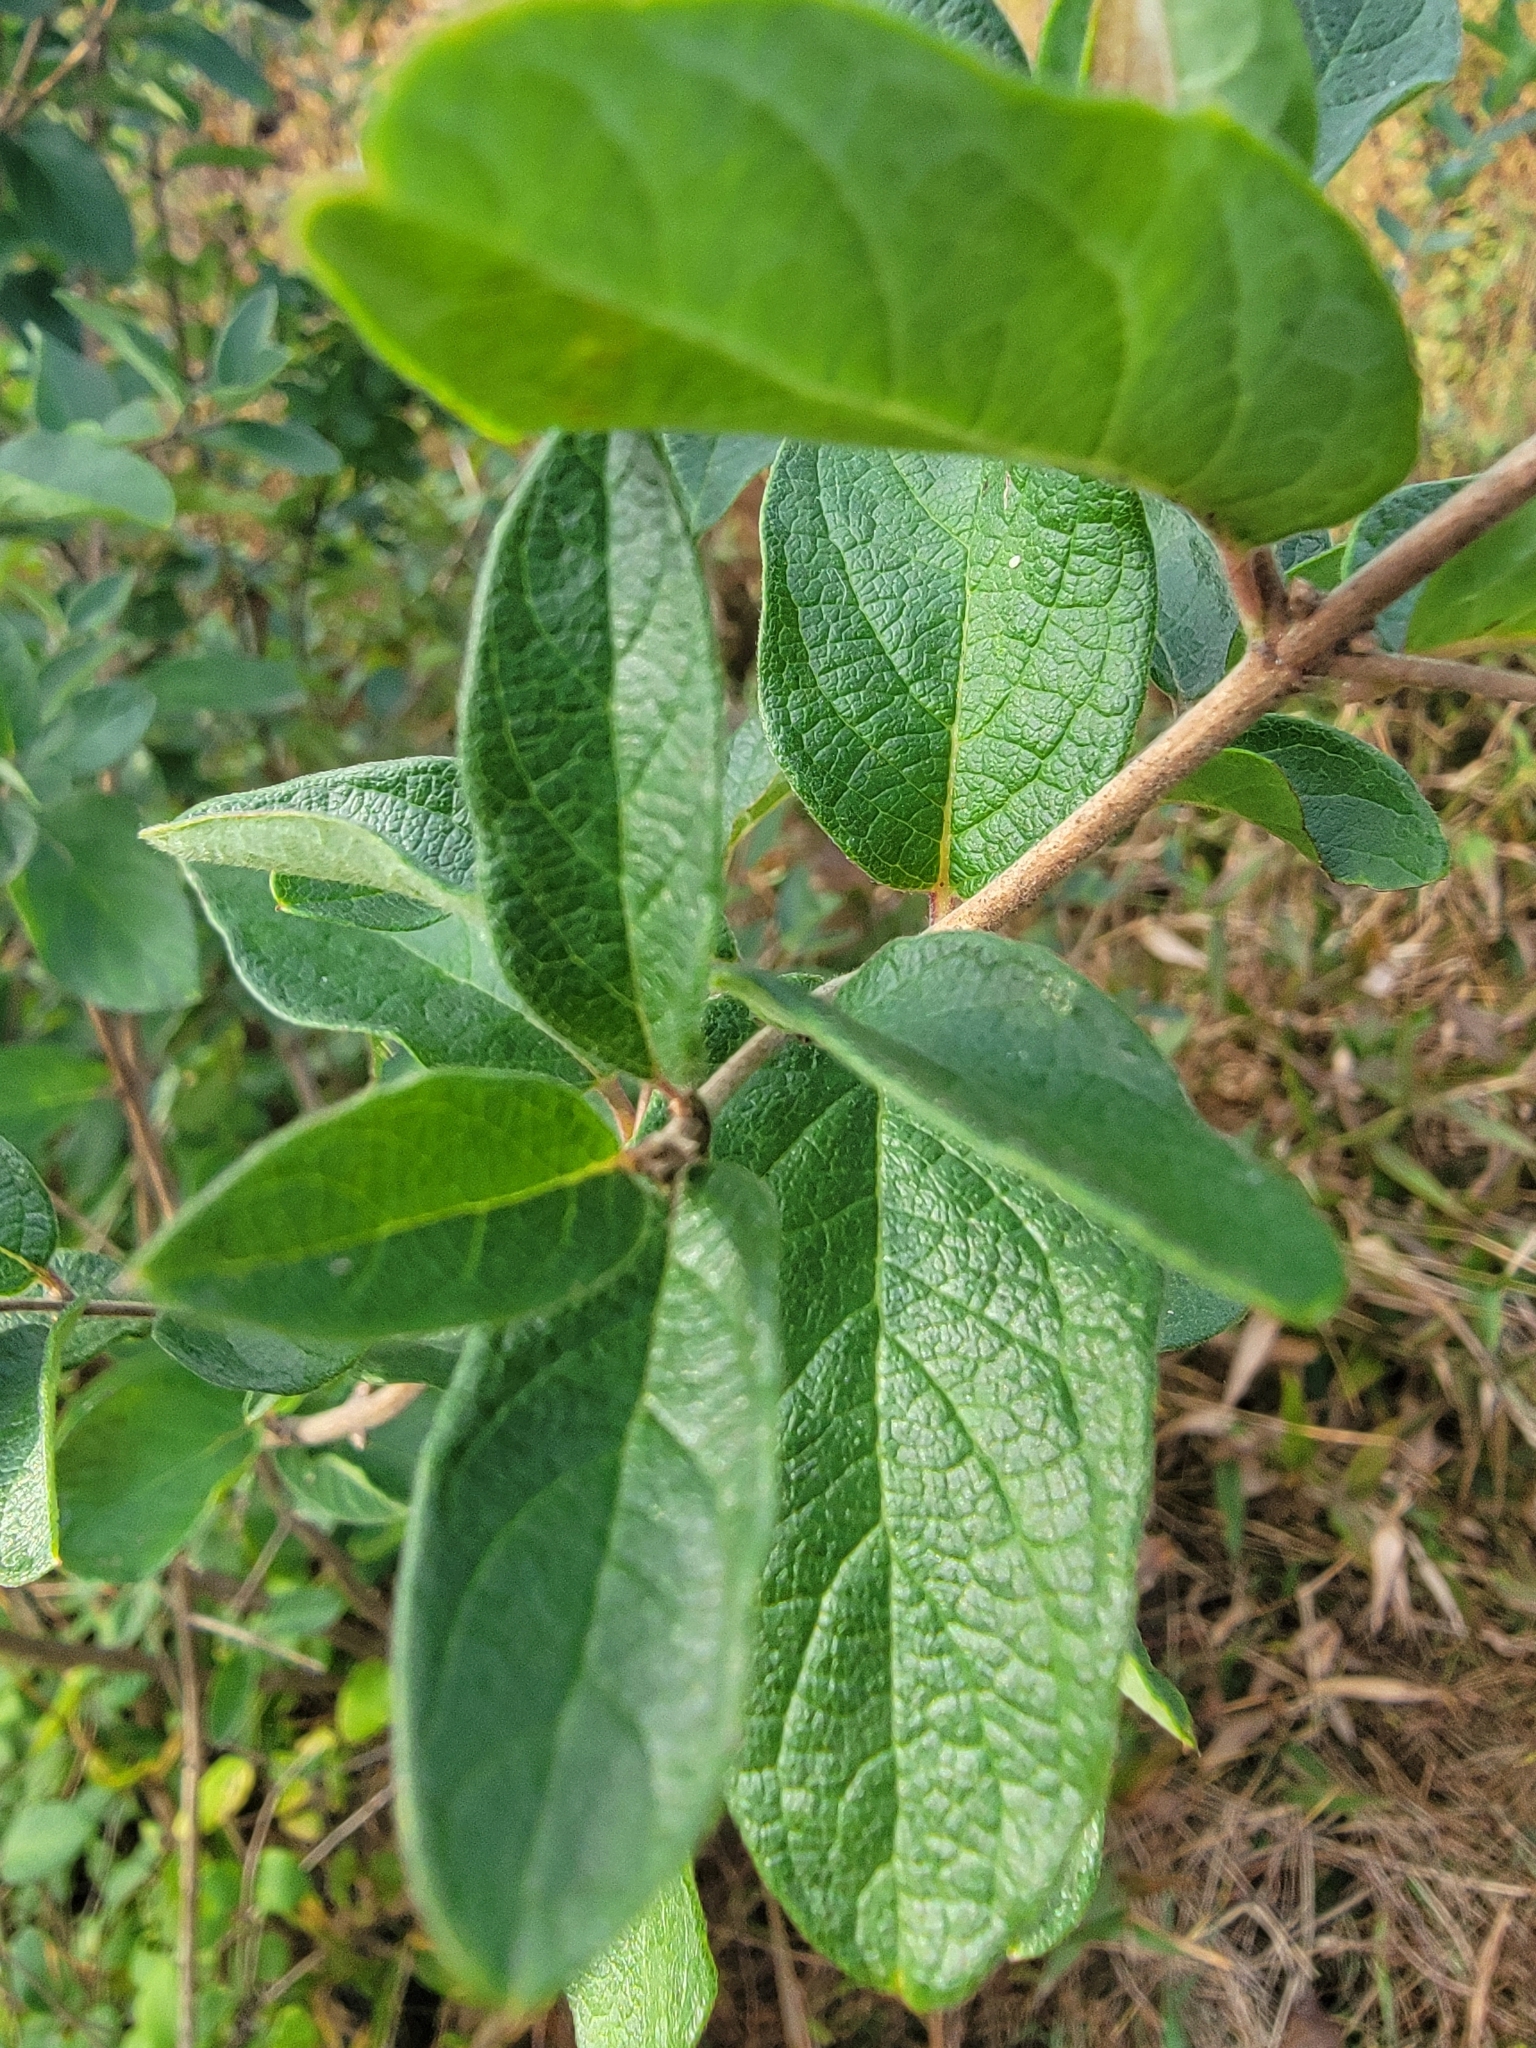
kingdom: Plantae
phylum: Tracheophyta
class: Magnoliopsida
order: Dipsacales
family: Caprifoliaceae
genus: Lonicera
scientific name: Lonicera morrowii
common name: Morrow's honeysuckle
